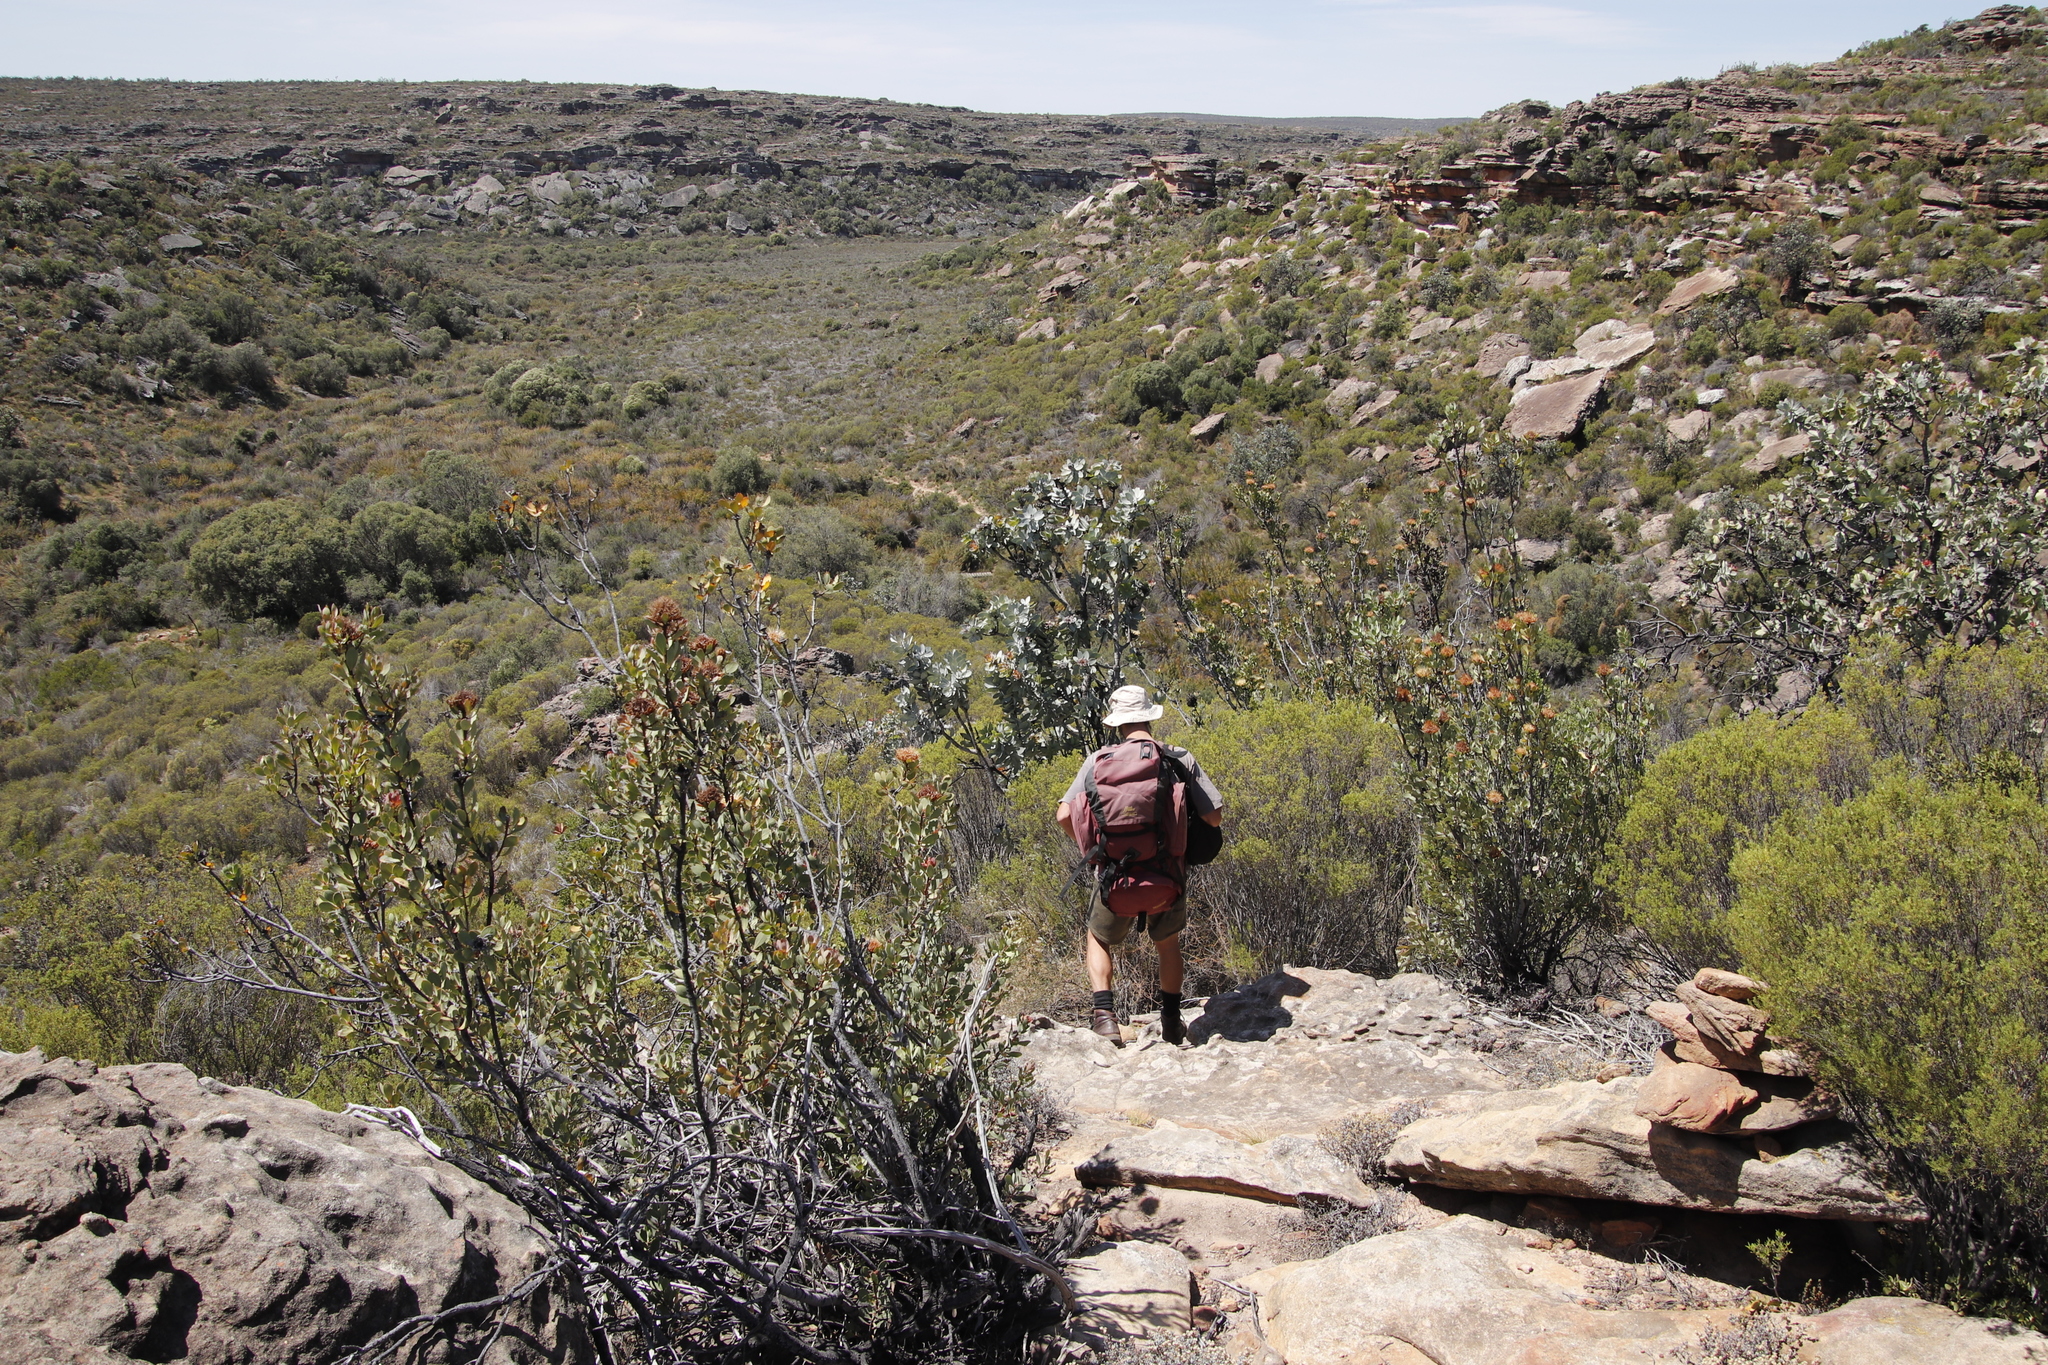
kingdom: Plantae
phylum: Tracheophyta
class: Magnoliopsida
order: Proteales
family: Proteaceae
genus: Protea
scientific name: Protea nitida
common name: Tree protea
